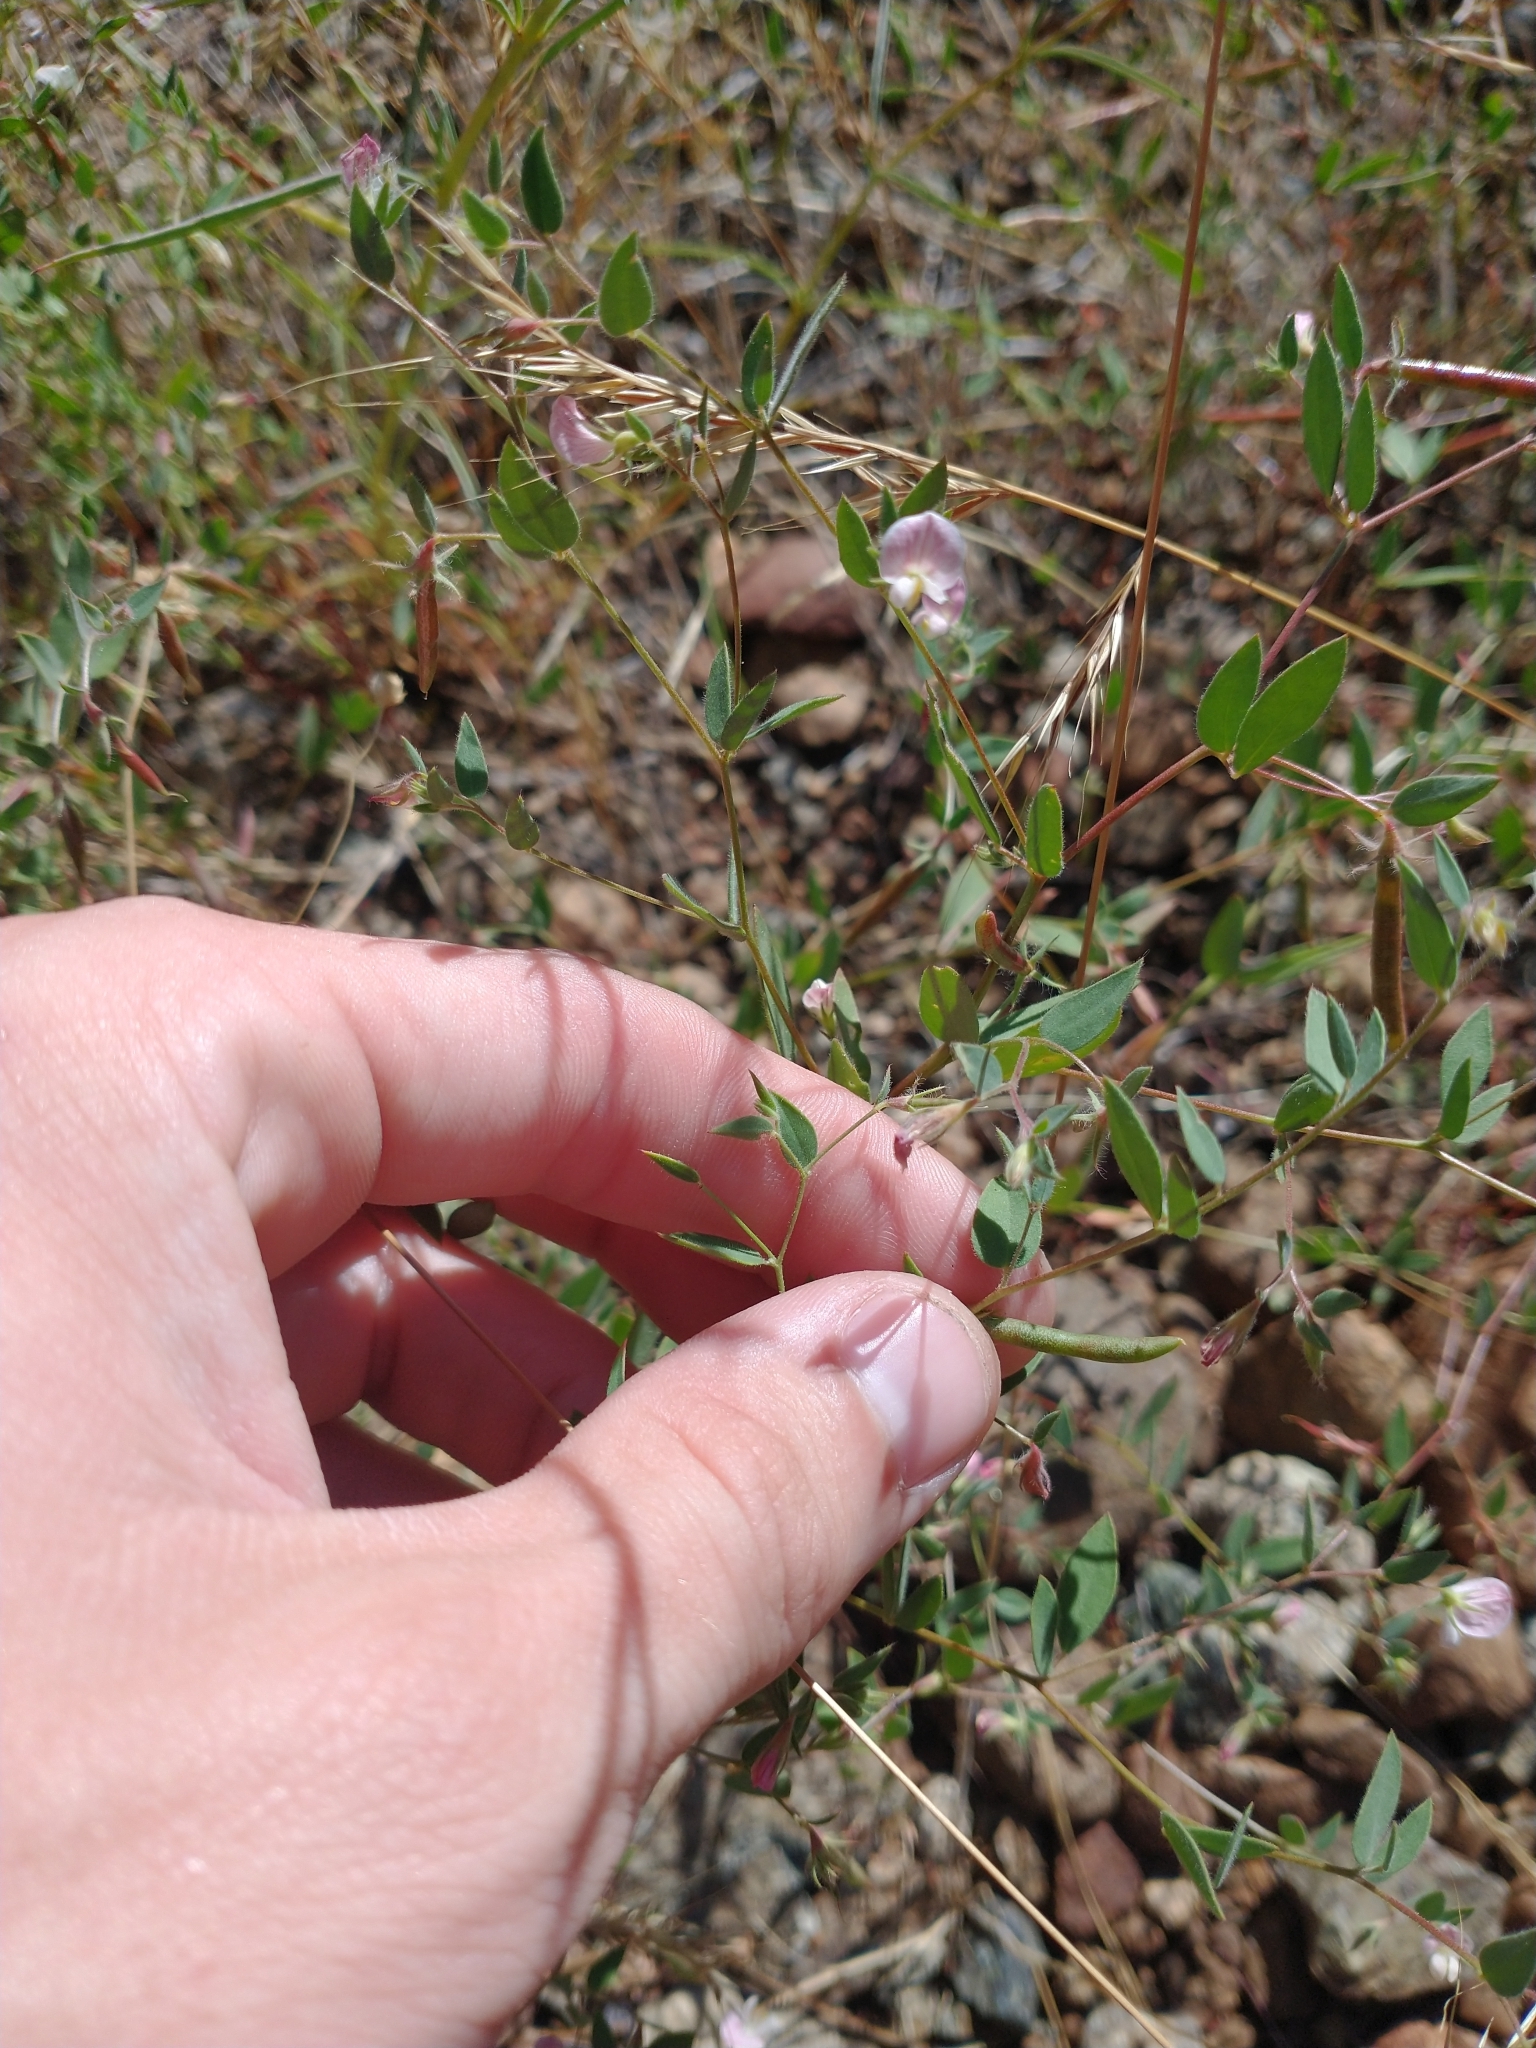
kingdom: Plantae
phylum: Tracheophyta
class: Magnoliopsida
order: Fabales
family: Fabaceae
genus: Acmispon
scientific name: Acmispon americanus
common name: American bird's-foot trefoil
